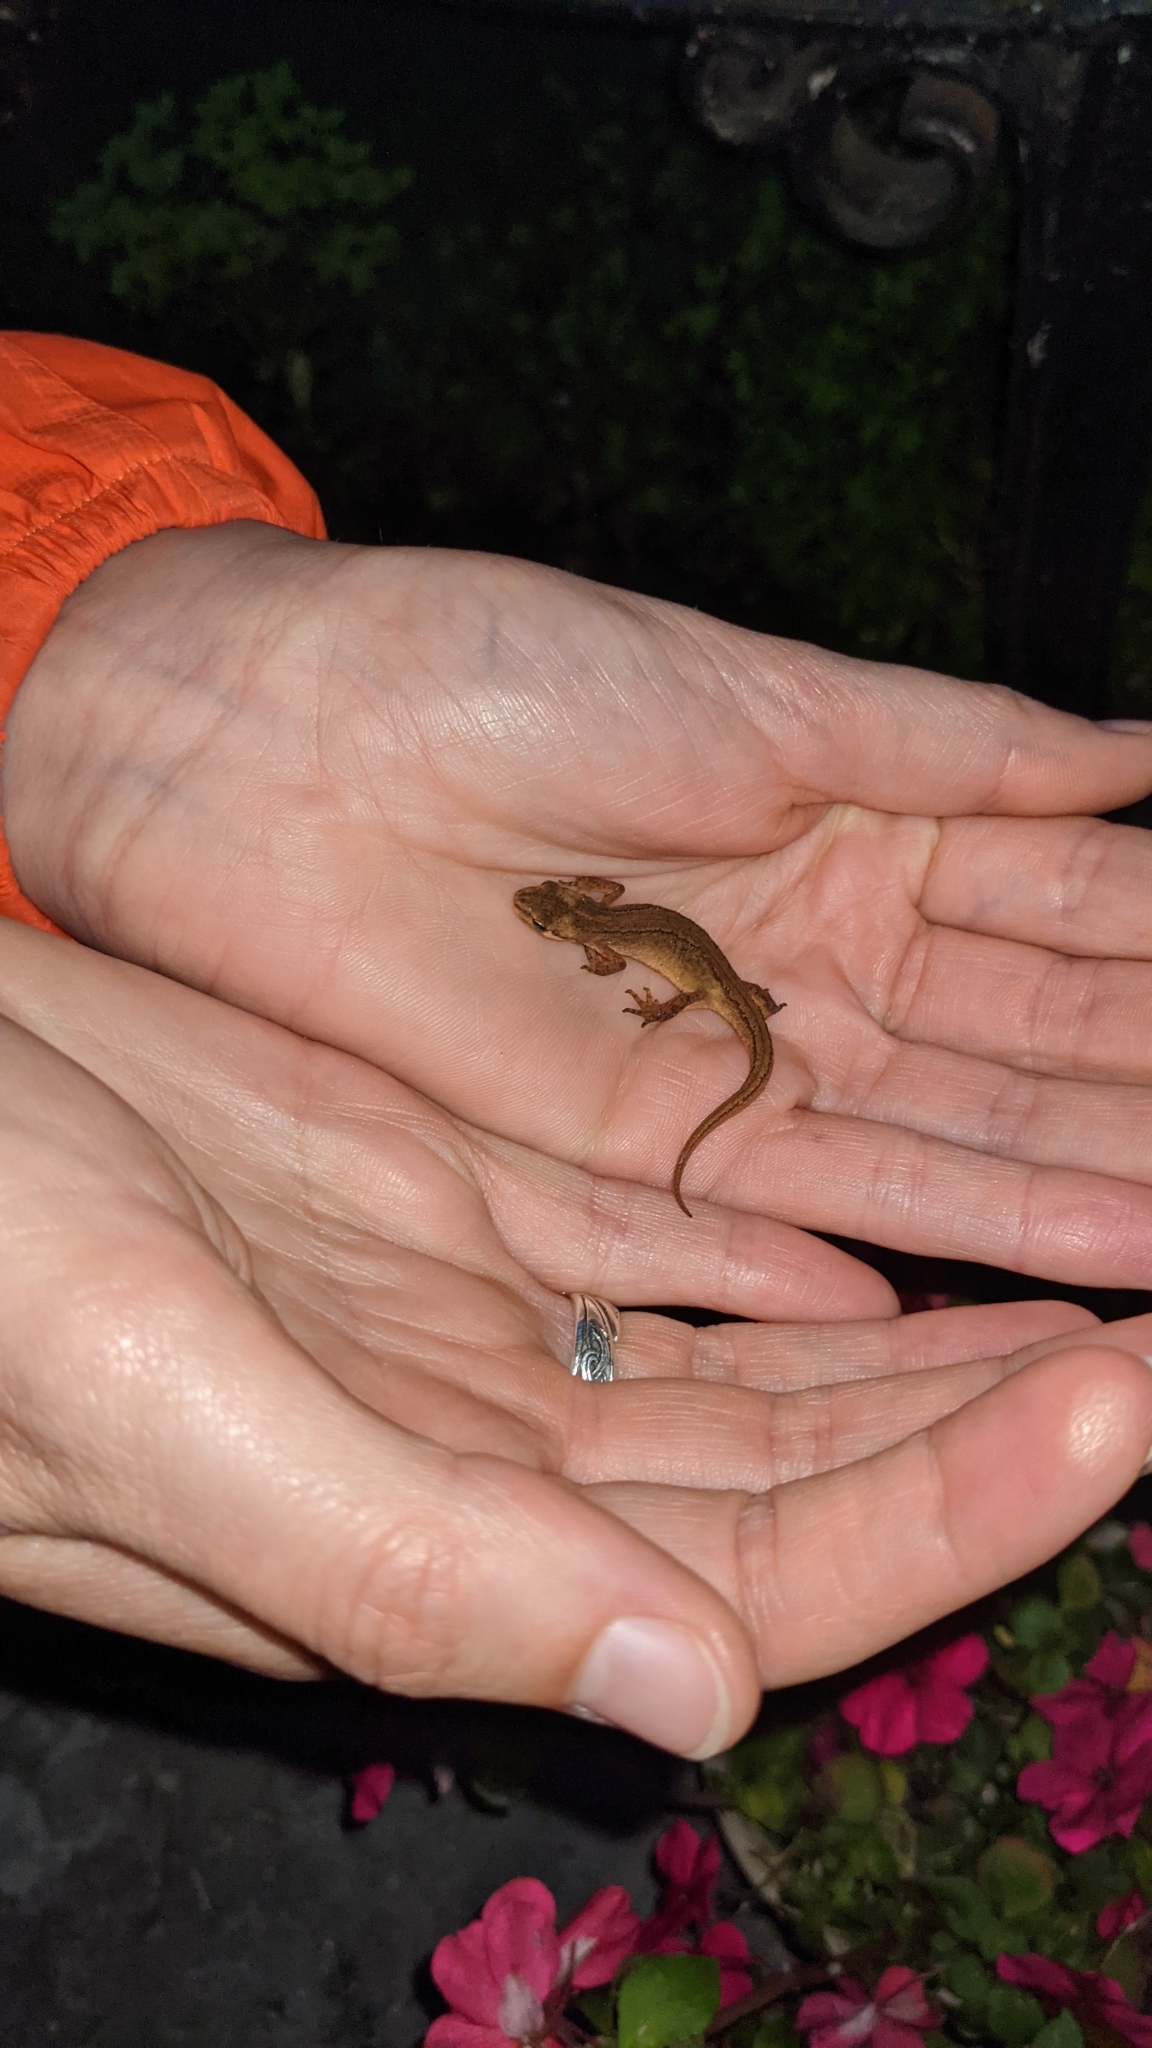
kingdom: Animalia
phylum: Chordata
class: Amphibia
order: Caudata
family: Salamandridae
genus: Lissotriton
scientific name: Lissotriton vulgaris
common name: Smooth newt
